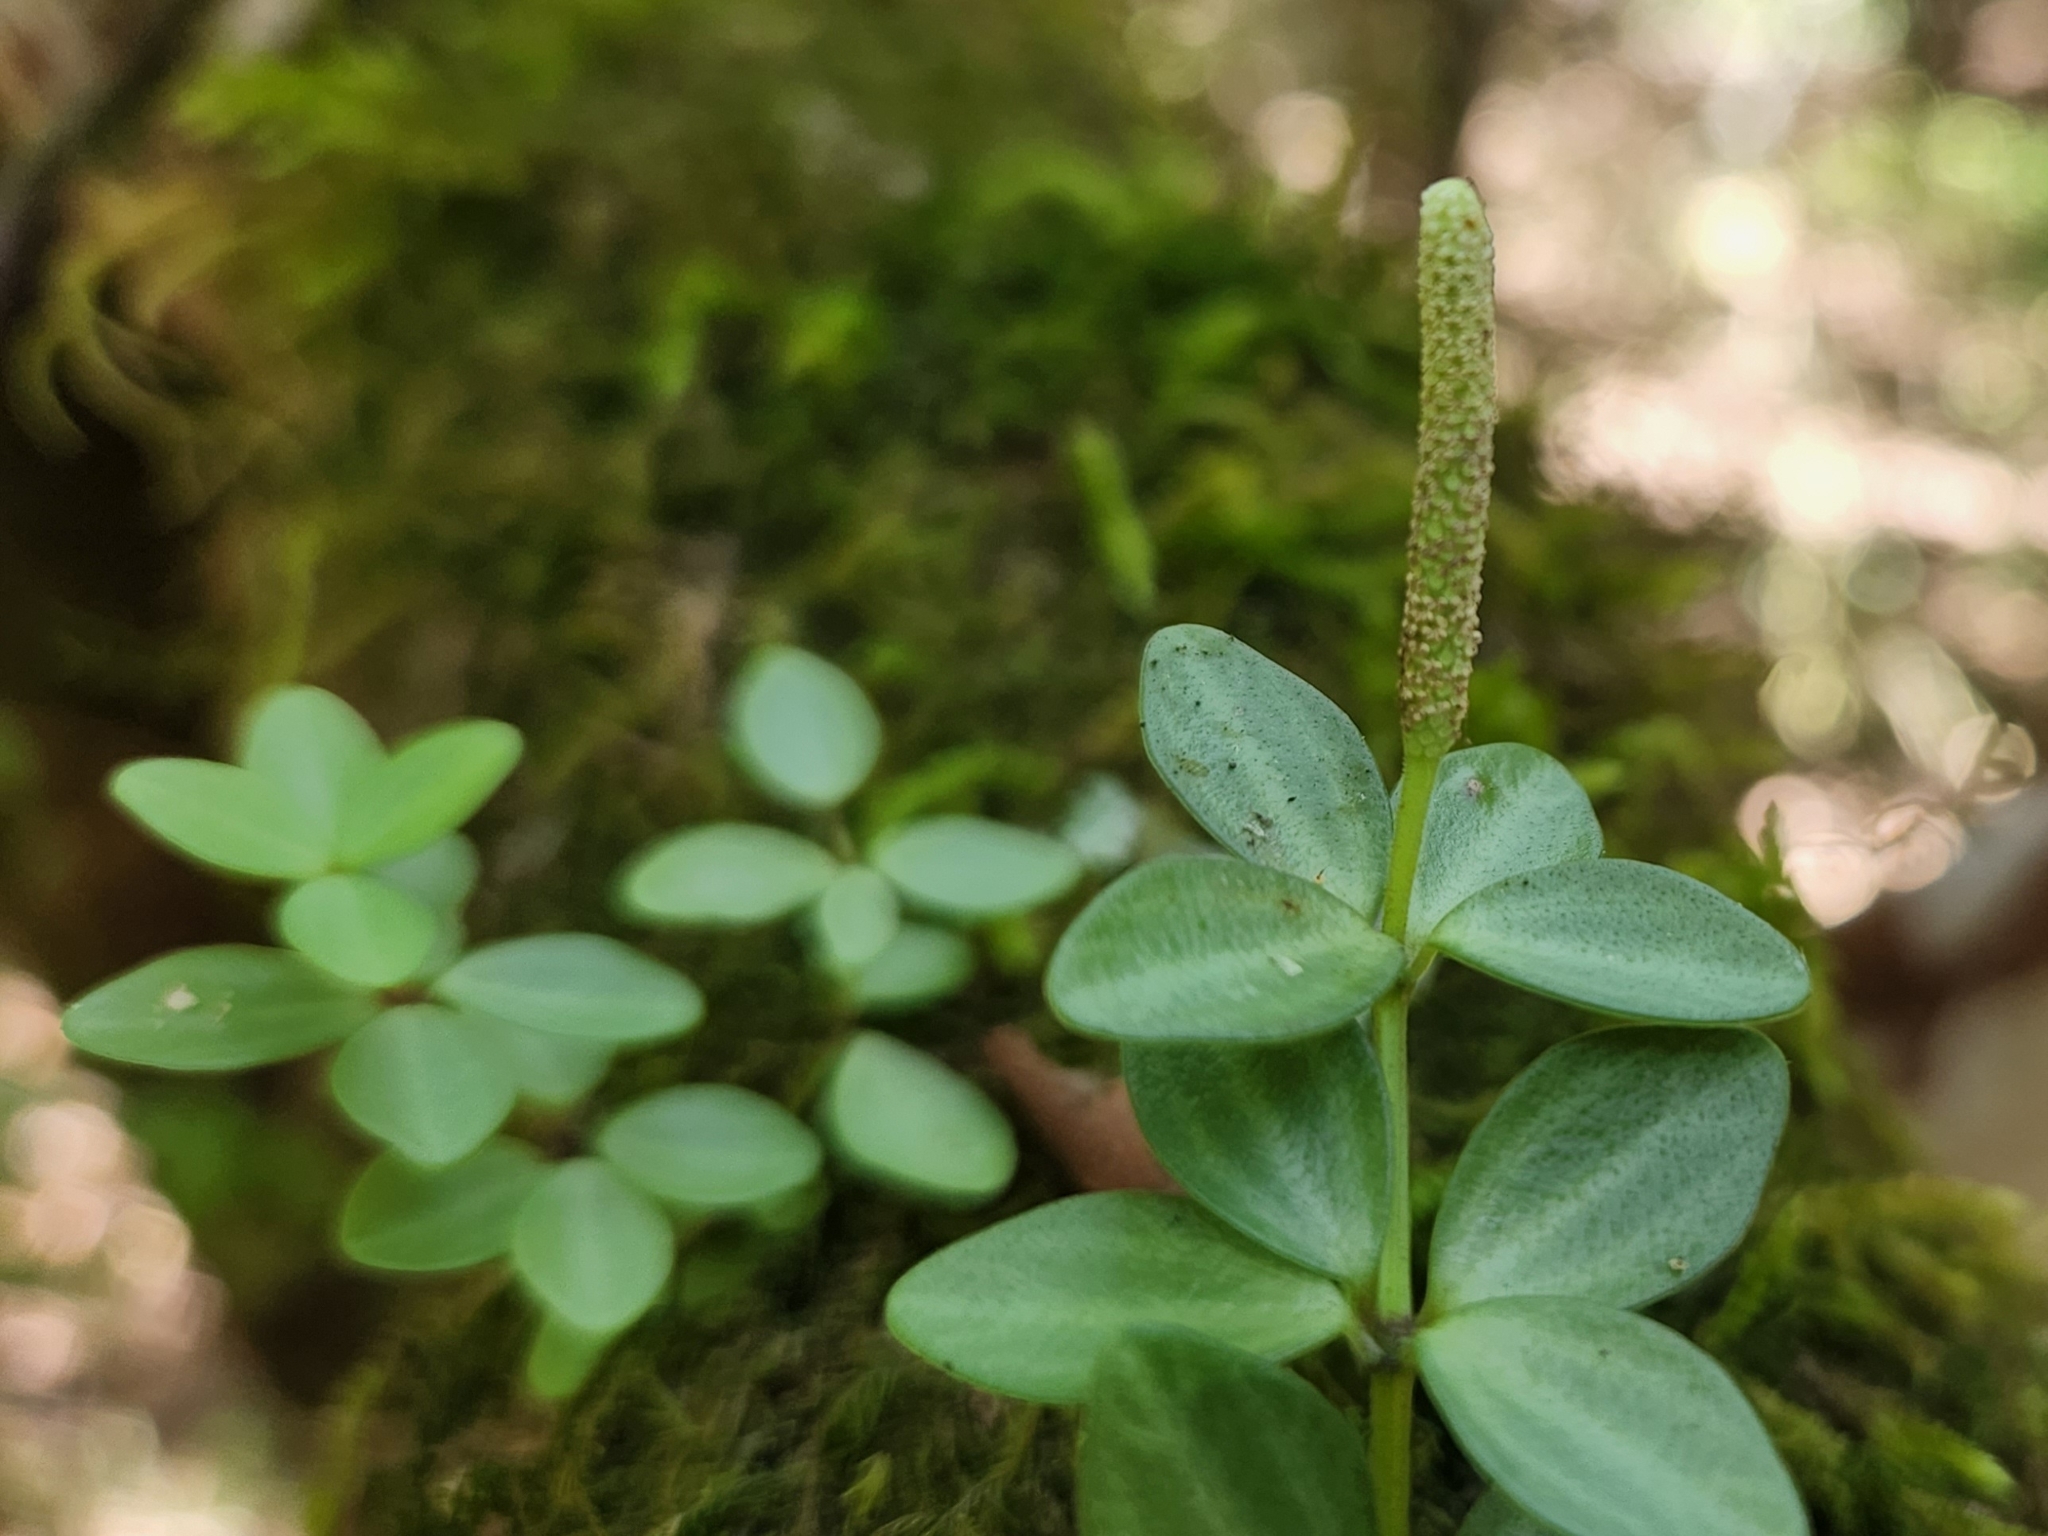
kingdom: Plantae
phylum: Tracheophyta
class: Magnoliopsida
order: Piperales
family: Piperaceae
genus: Peperomia
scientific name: Peperomia tetraphylla
